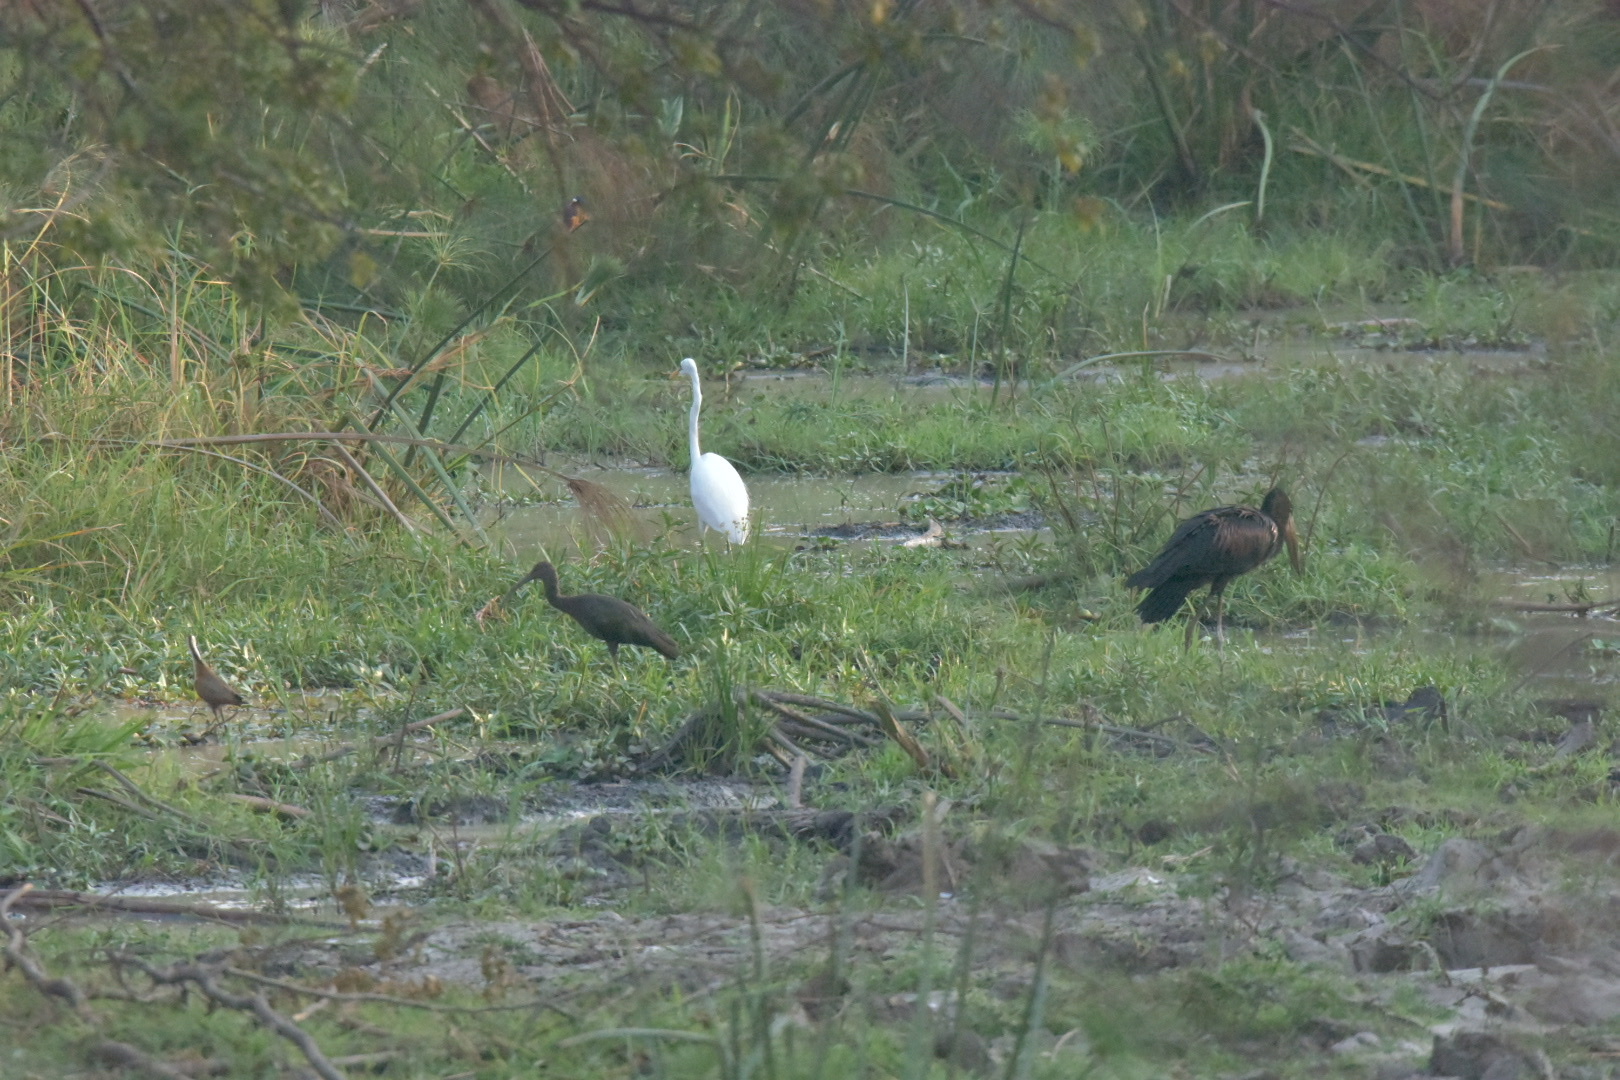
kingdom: Animalia
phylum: Chordata
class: Aves
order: Pelecaniformes
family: Threskiornithidae
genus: Plegadis
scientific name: Plegadis falcinellus
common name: Glossy ibis
